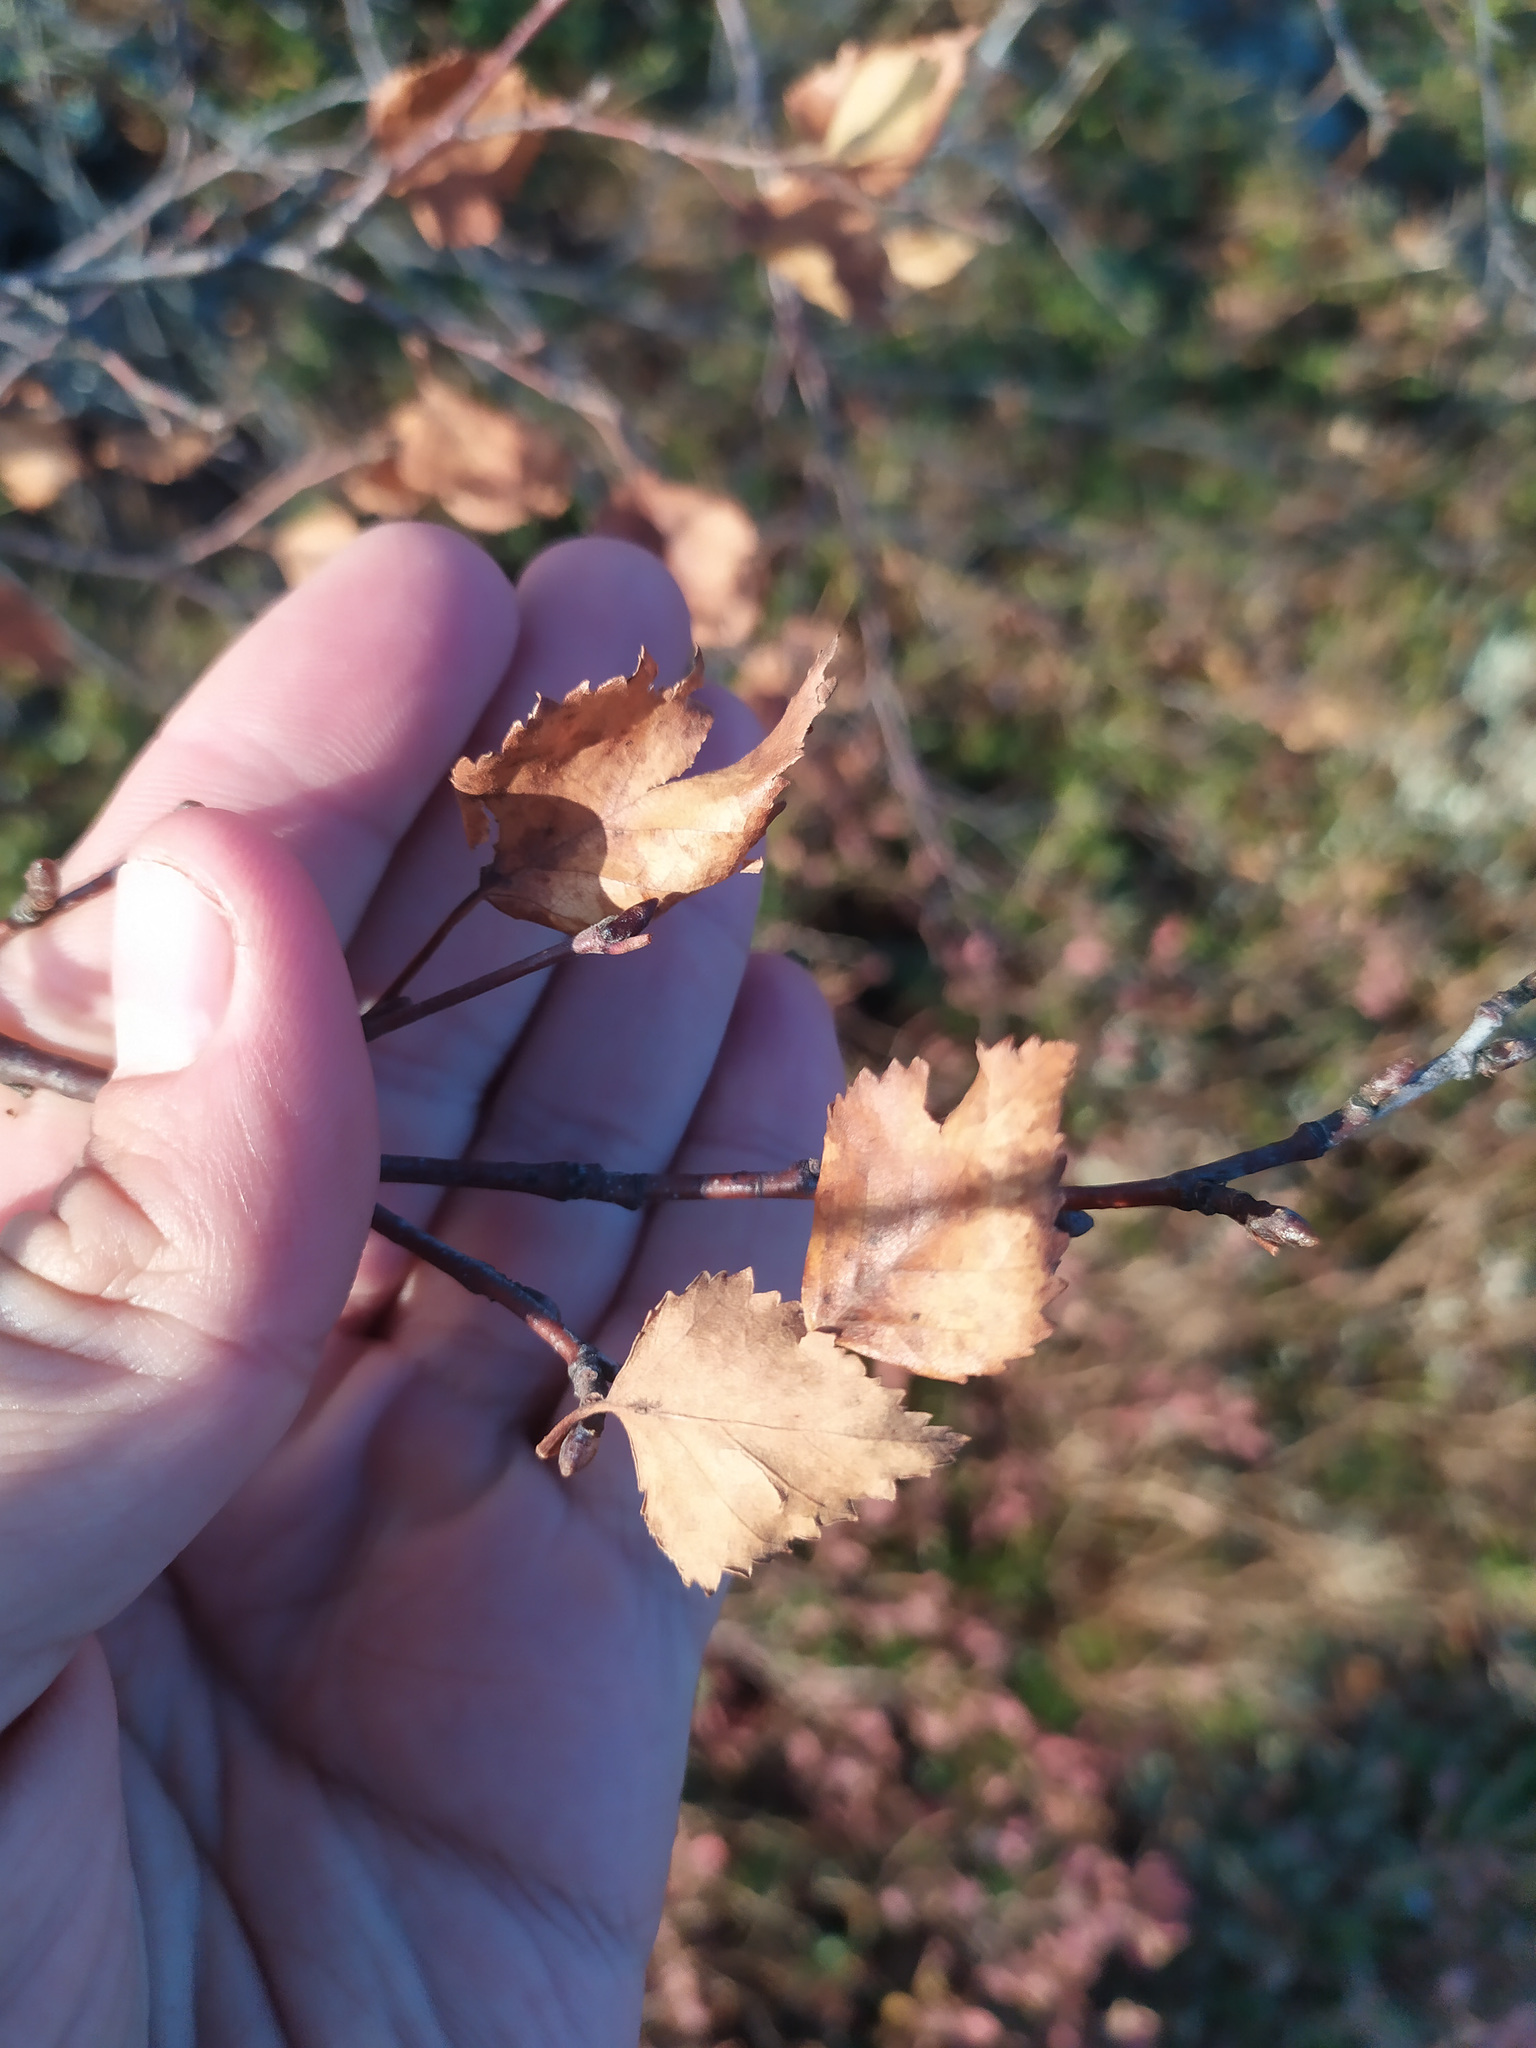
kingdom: Plantae
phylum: Tracheophyta
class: Magnoliopsida
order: Fagales
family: Betulaceae
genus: Betula
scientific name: Betula pendula
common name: Silver birch
